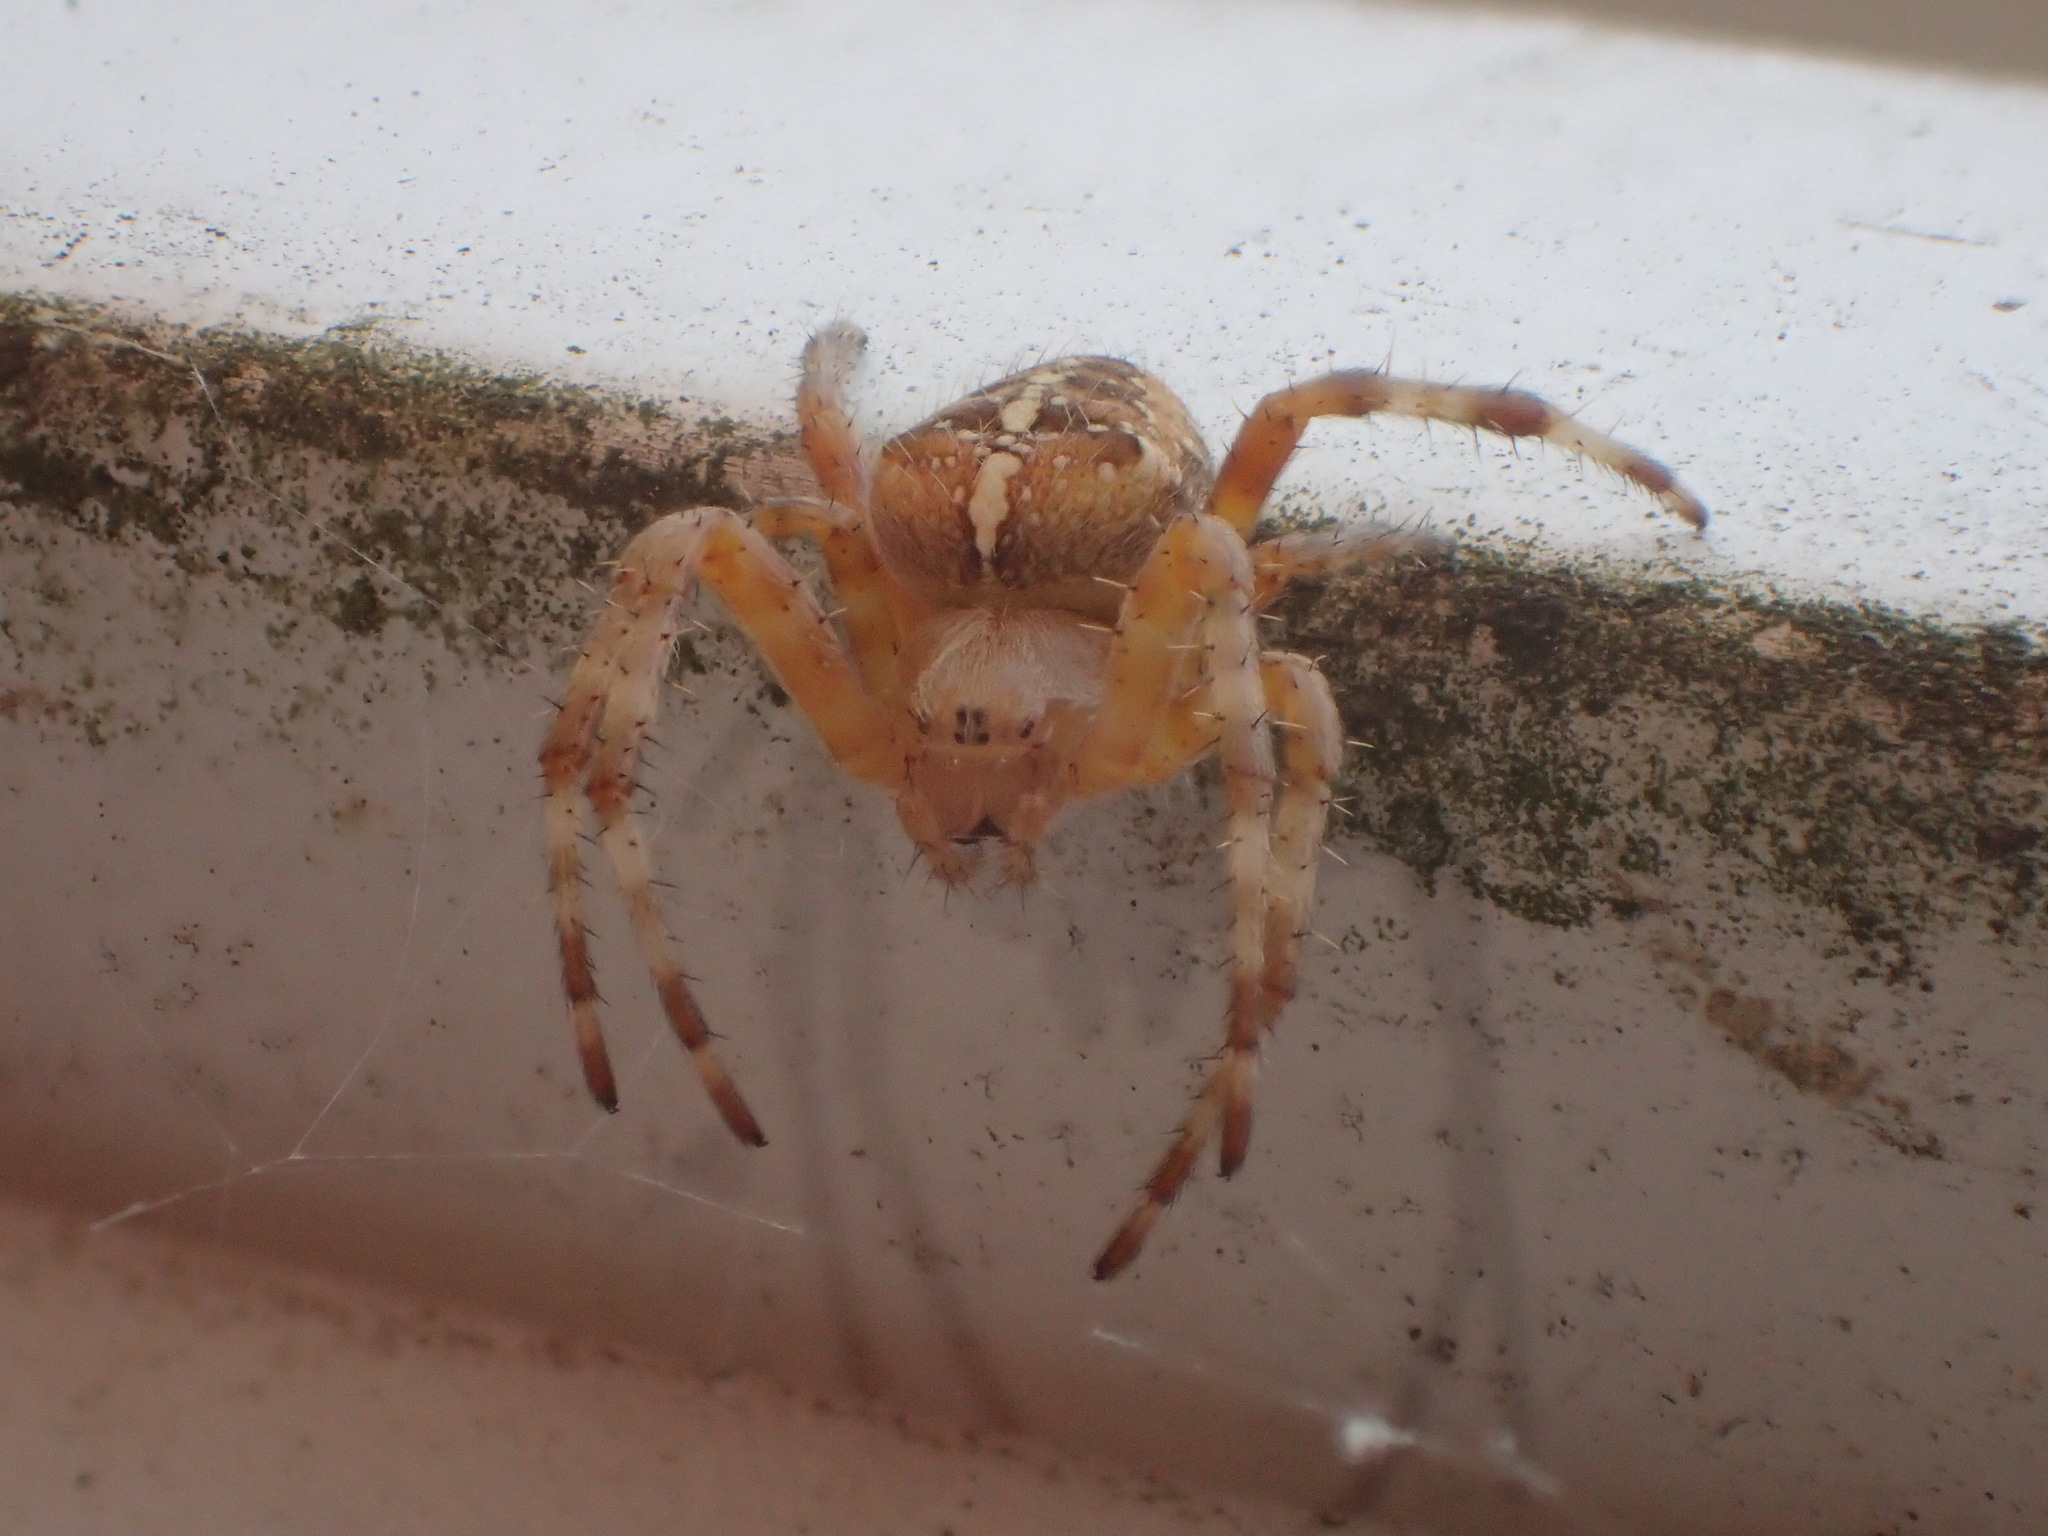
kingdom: Animalia
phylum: Arthropoda
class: Arachnida
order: Araneae
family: Araneidae
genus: Araneus
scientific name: Araneus diadematus
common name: Cross orbweaver
